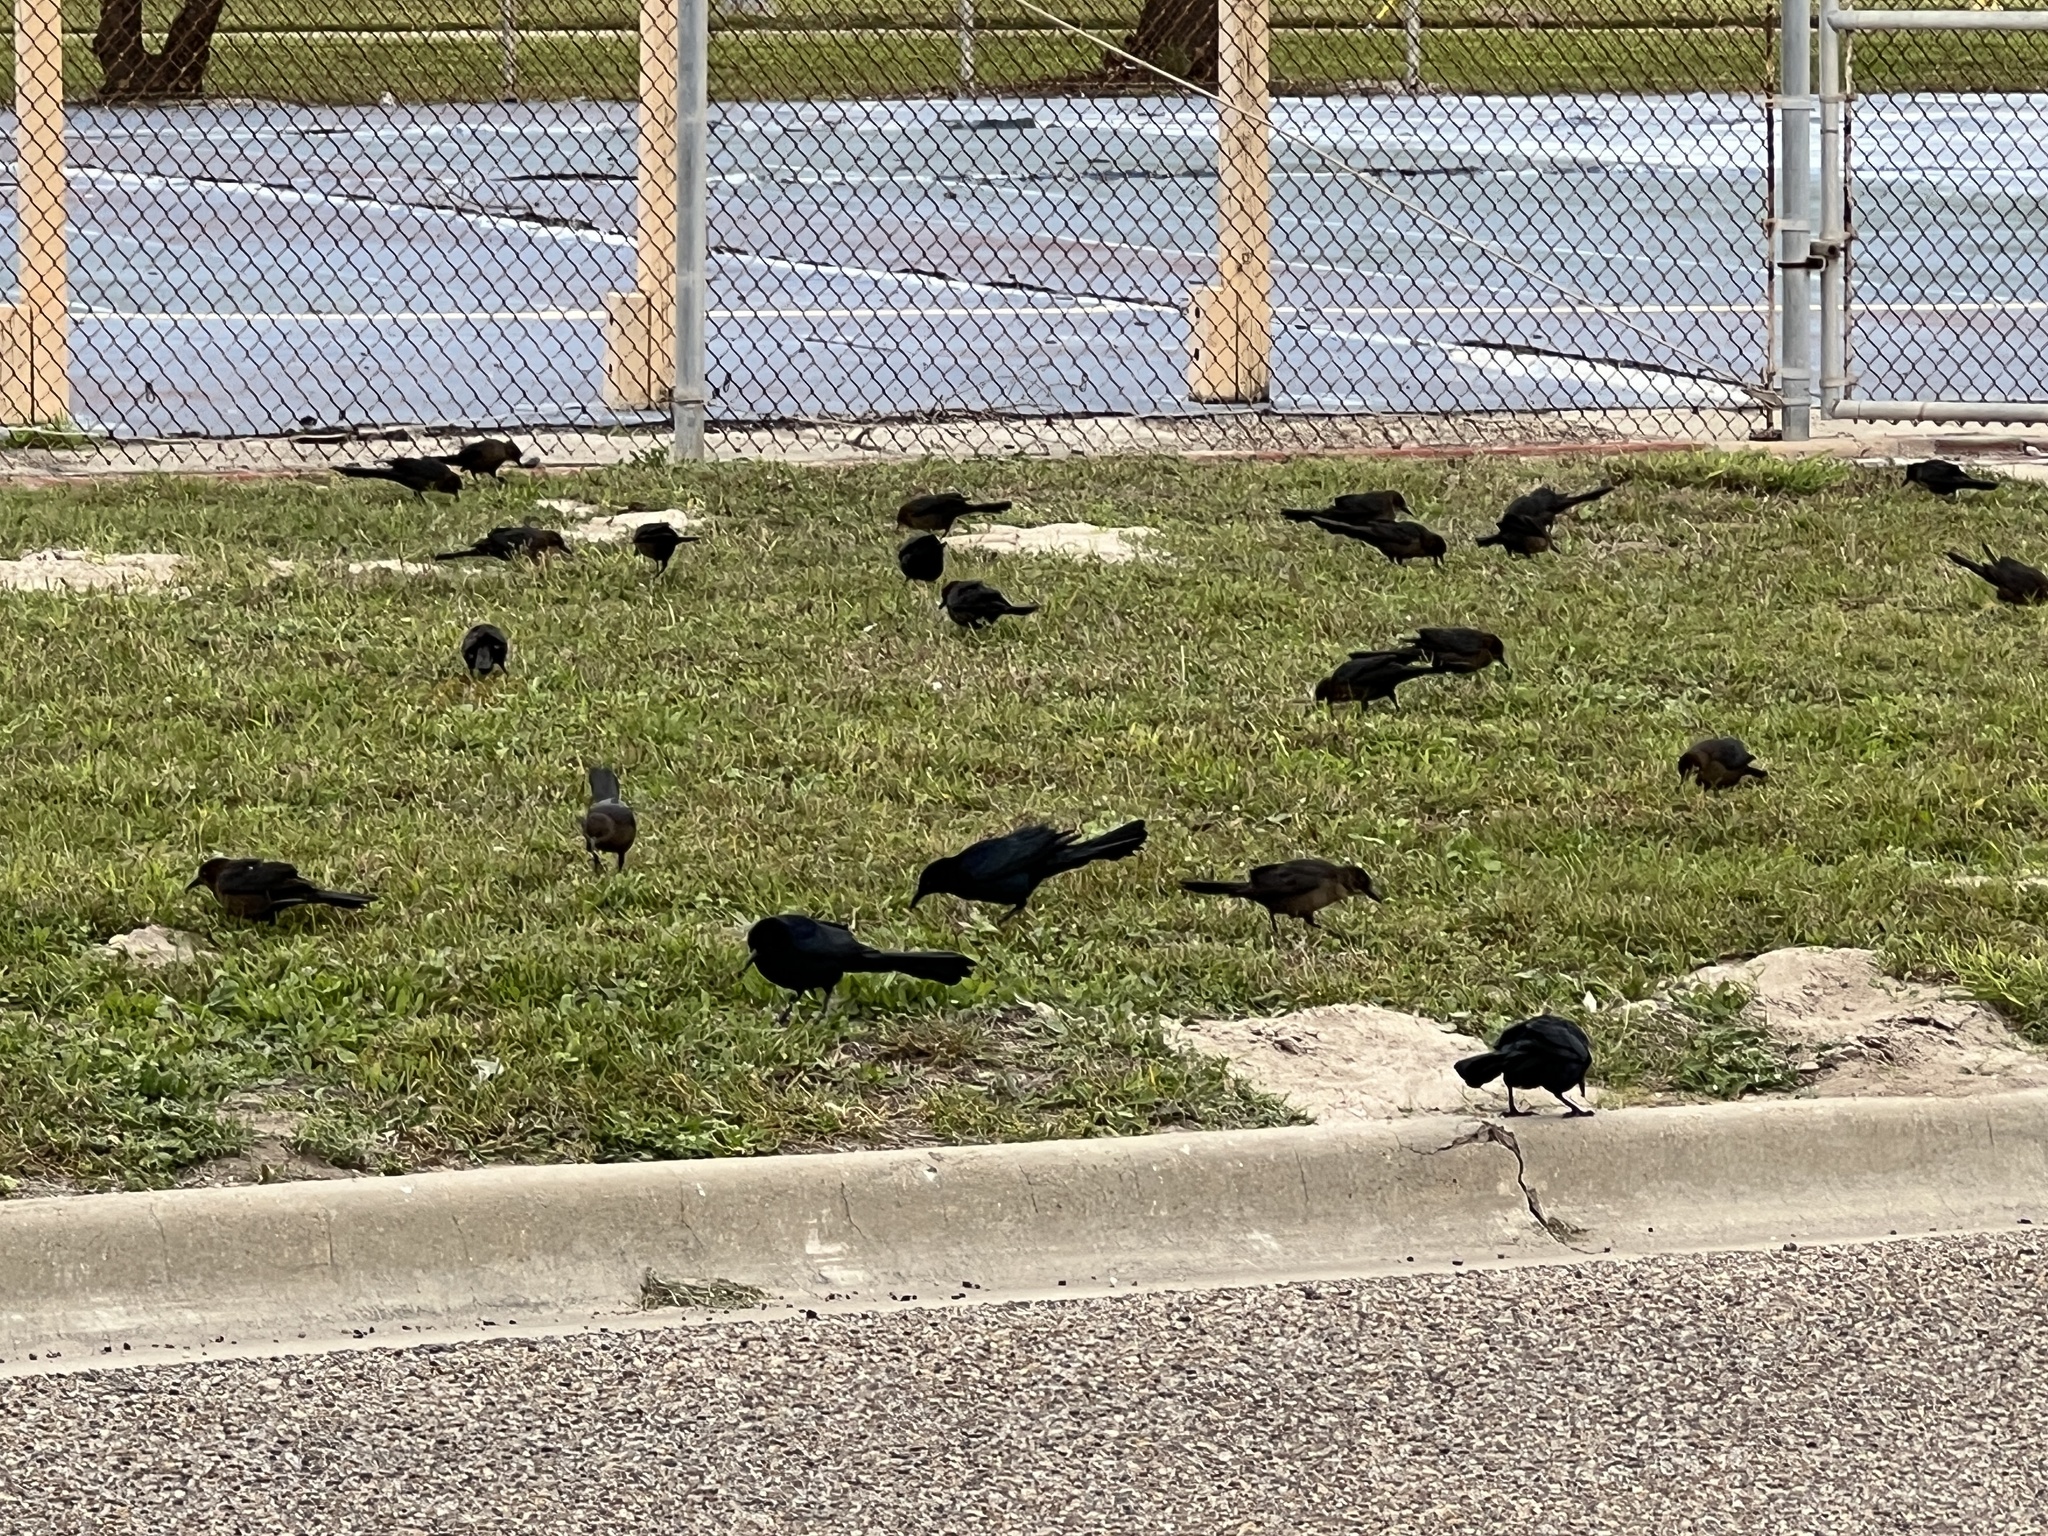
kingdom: Animalia
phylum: Chordata
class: Aves
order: Passeriformes
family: Icteridae
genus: Quiscalus
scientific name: Quiscalus mexicanus
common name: Great-tailed grackle
